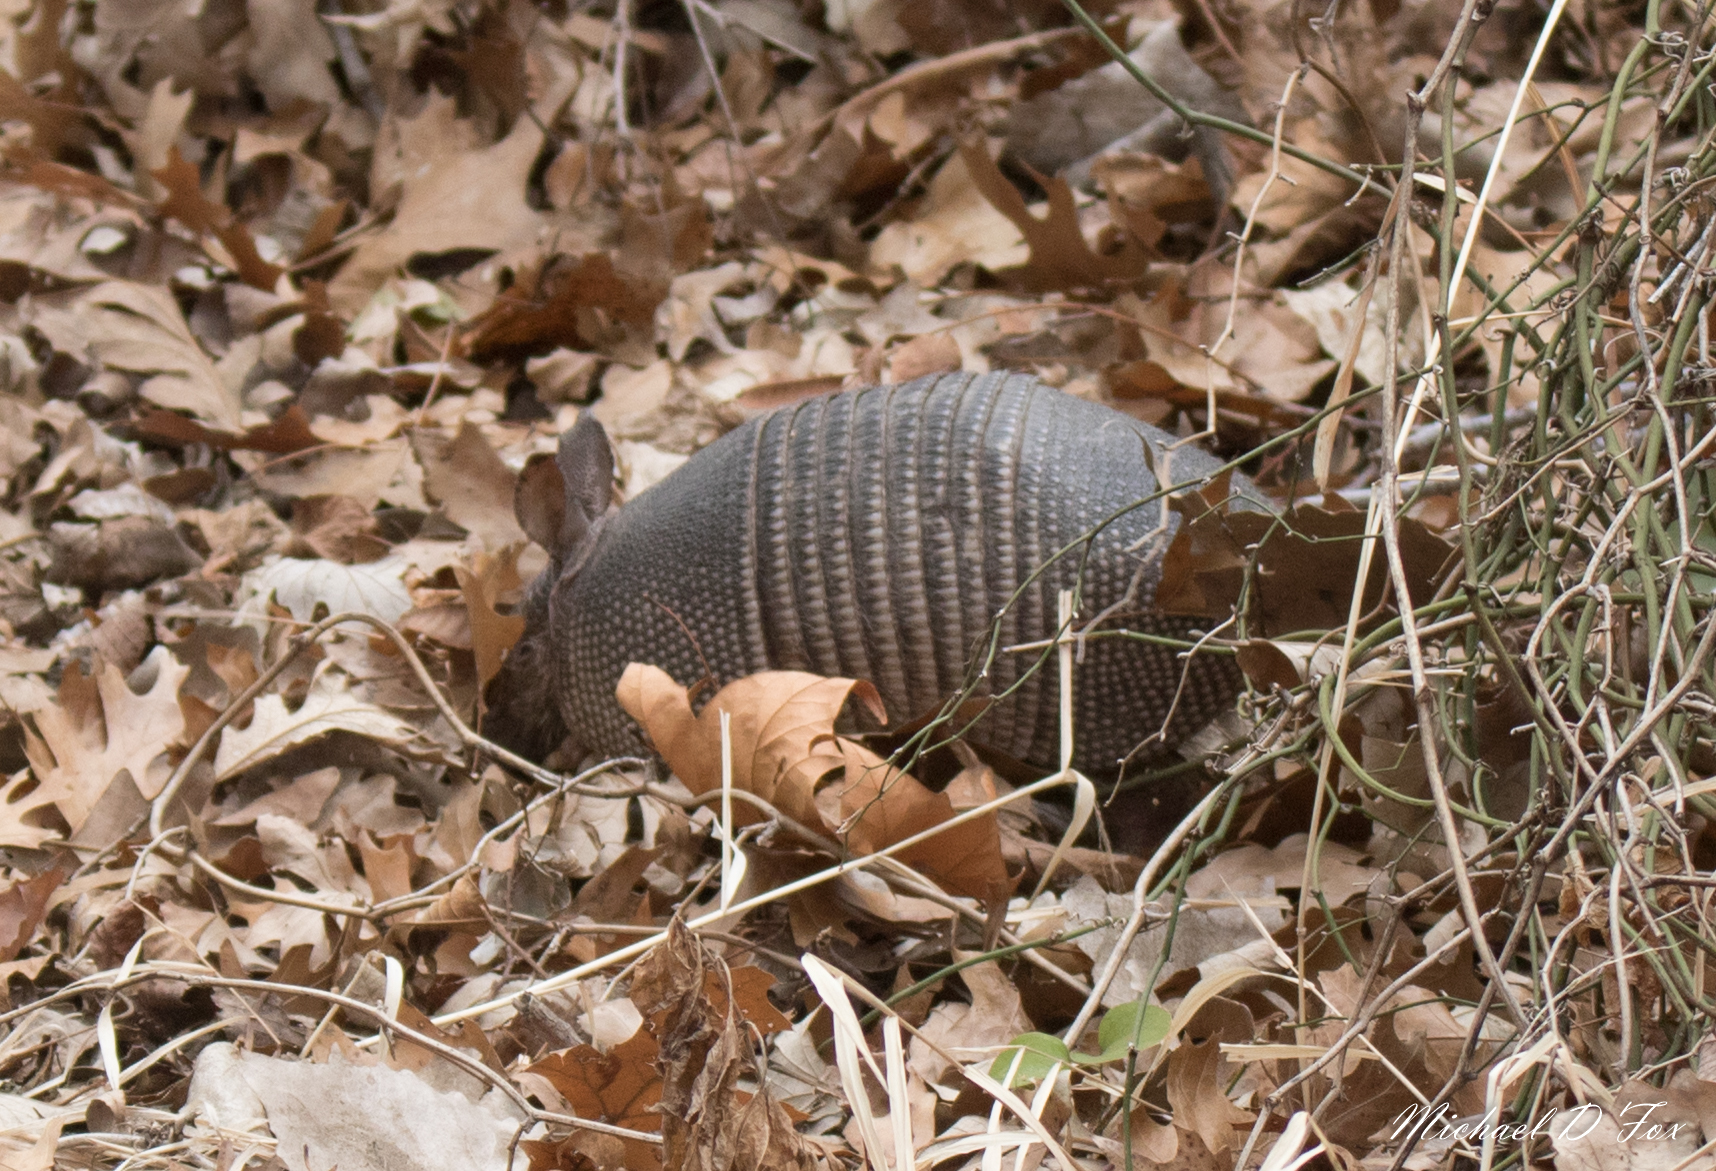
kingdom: Animalia
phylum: Chordata
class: Mammalia
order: Cingulata
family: Dasypodidae
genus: Dasypus
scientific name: Dasypus novemcinctus
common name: Nine-banded armadillo
